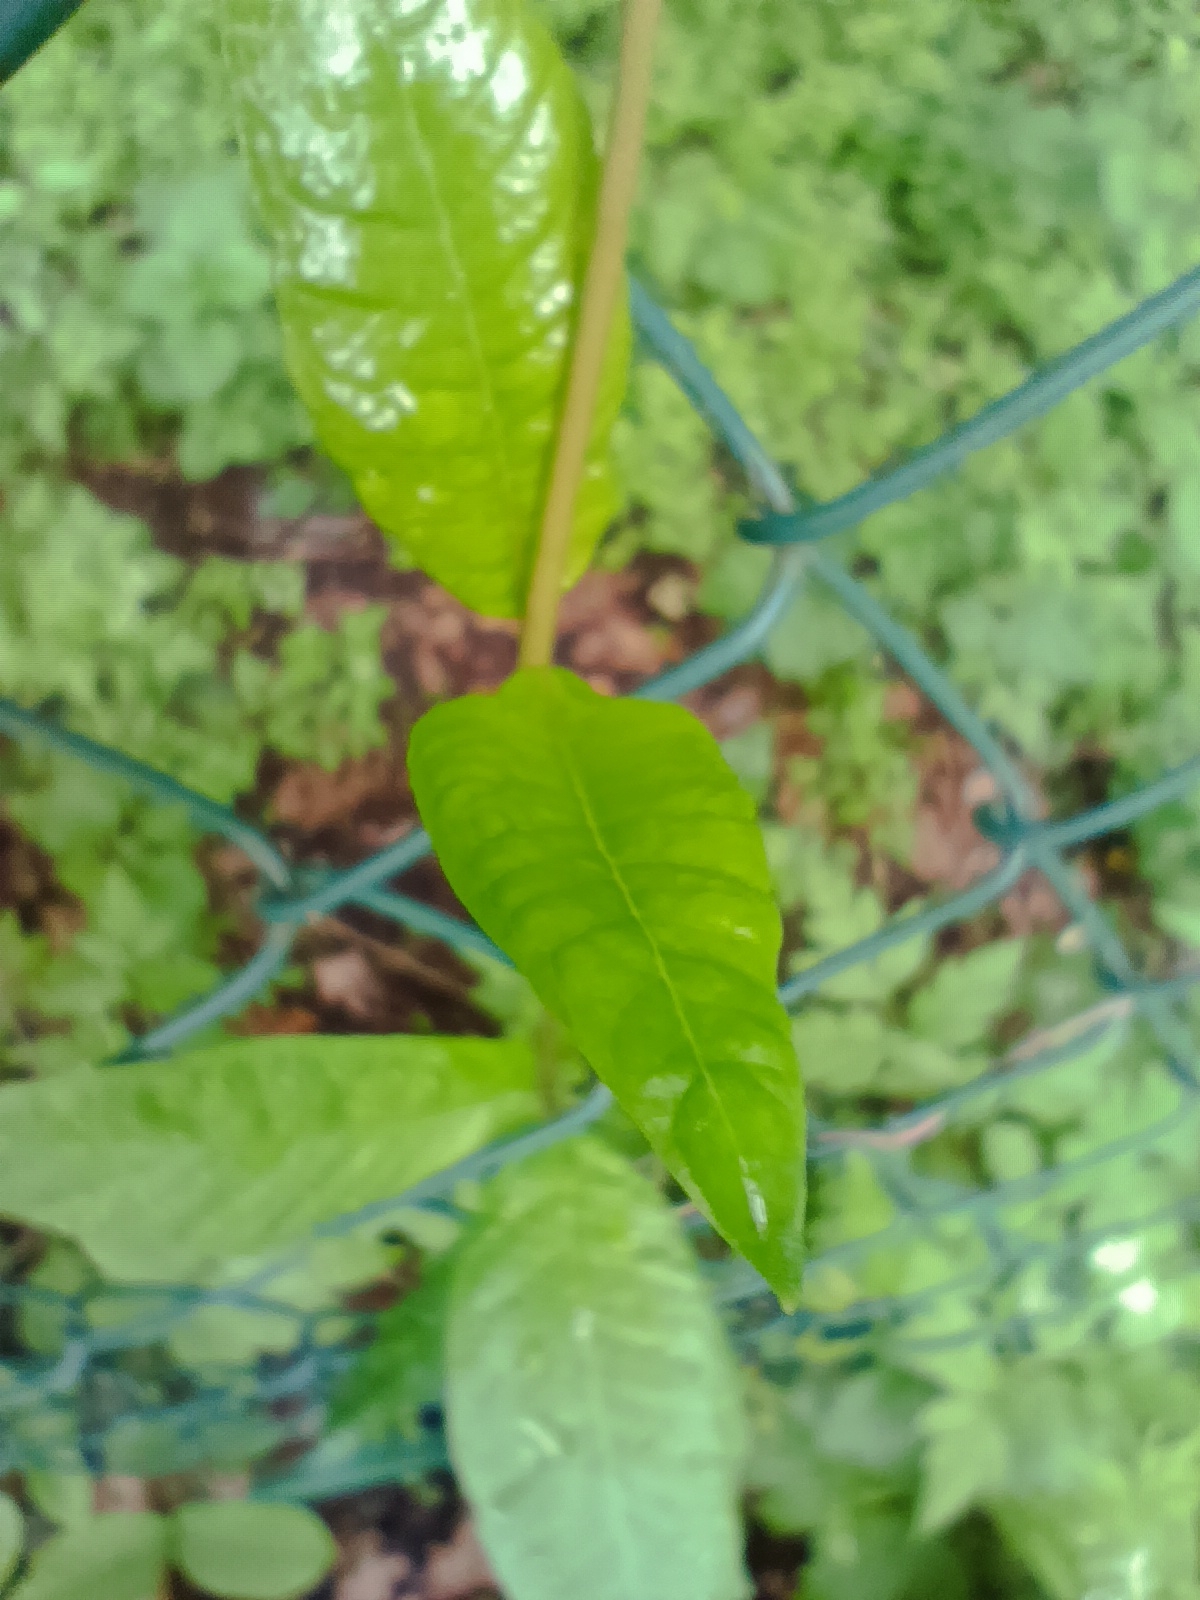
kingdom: Plantae
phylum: Tracheophyta
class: Magnoliopsida
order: Gentianales
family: Apocynaceae
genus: Periploca
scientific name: Periploca graeca
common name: Silkvine
